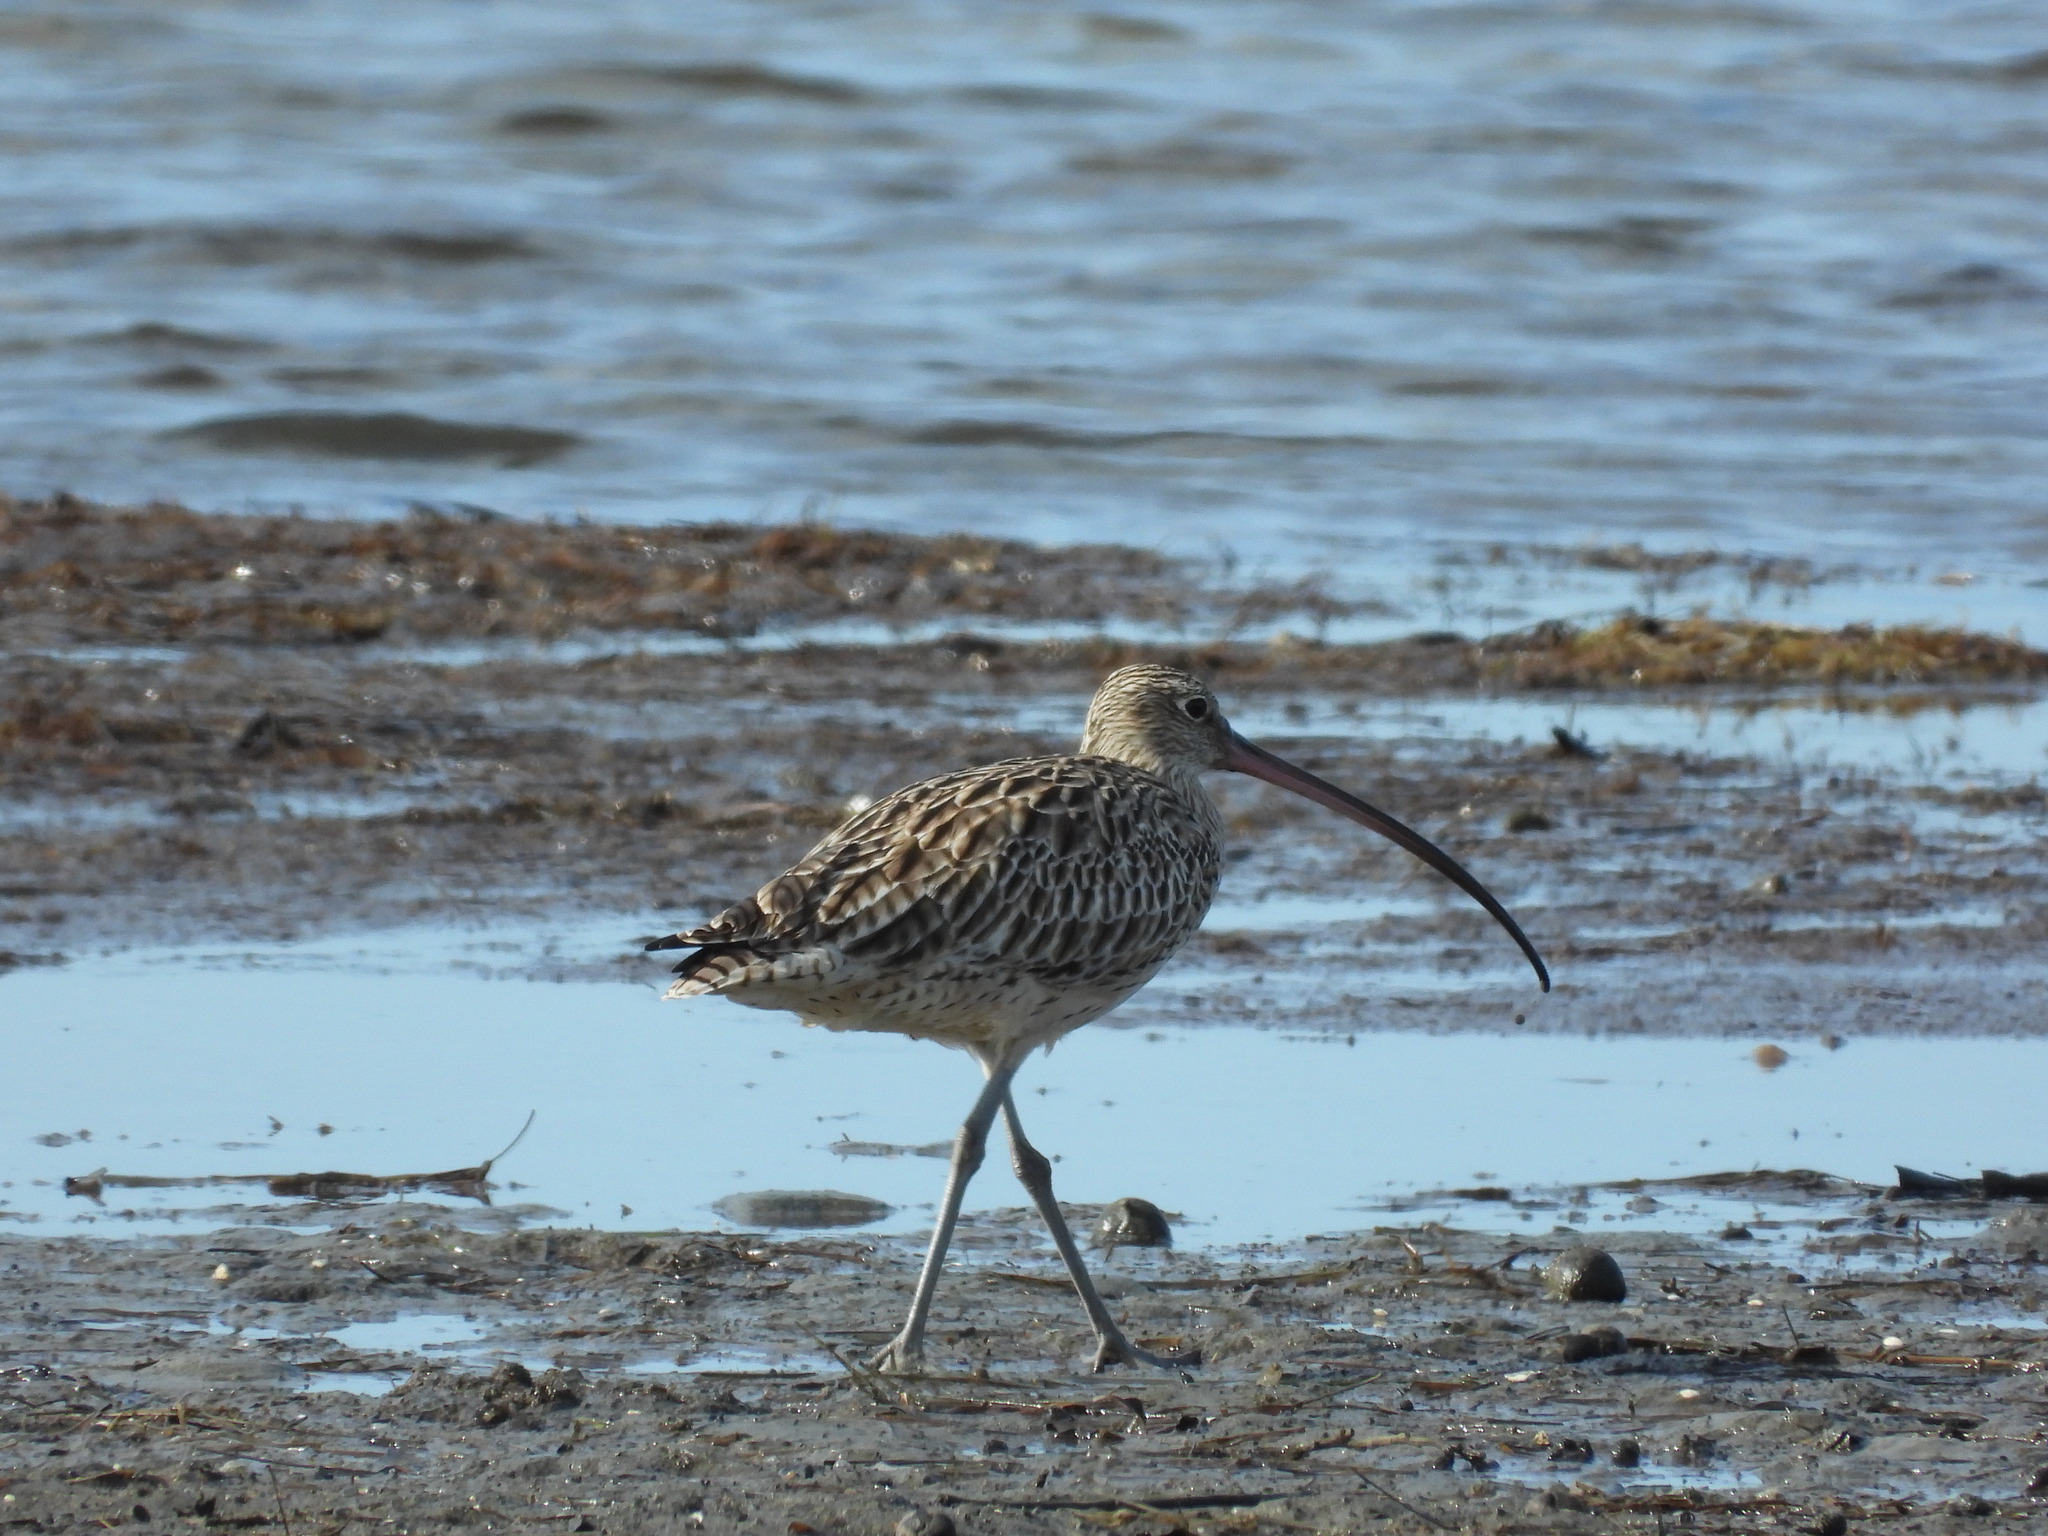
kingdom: Animalia
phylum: Chordata
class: Aves
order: Charadriiformes
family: Scolopacidae
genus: Numenius
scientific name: Numenius madagascariensis
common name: Far eastern curlew
